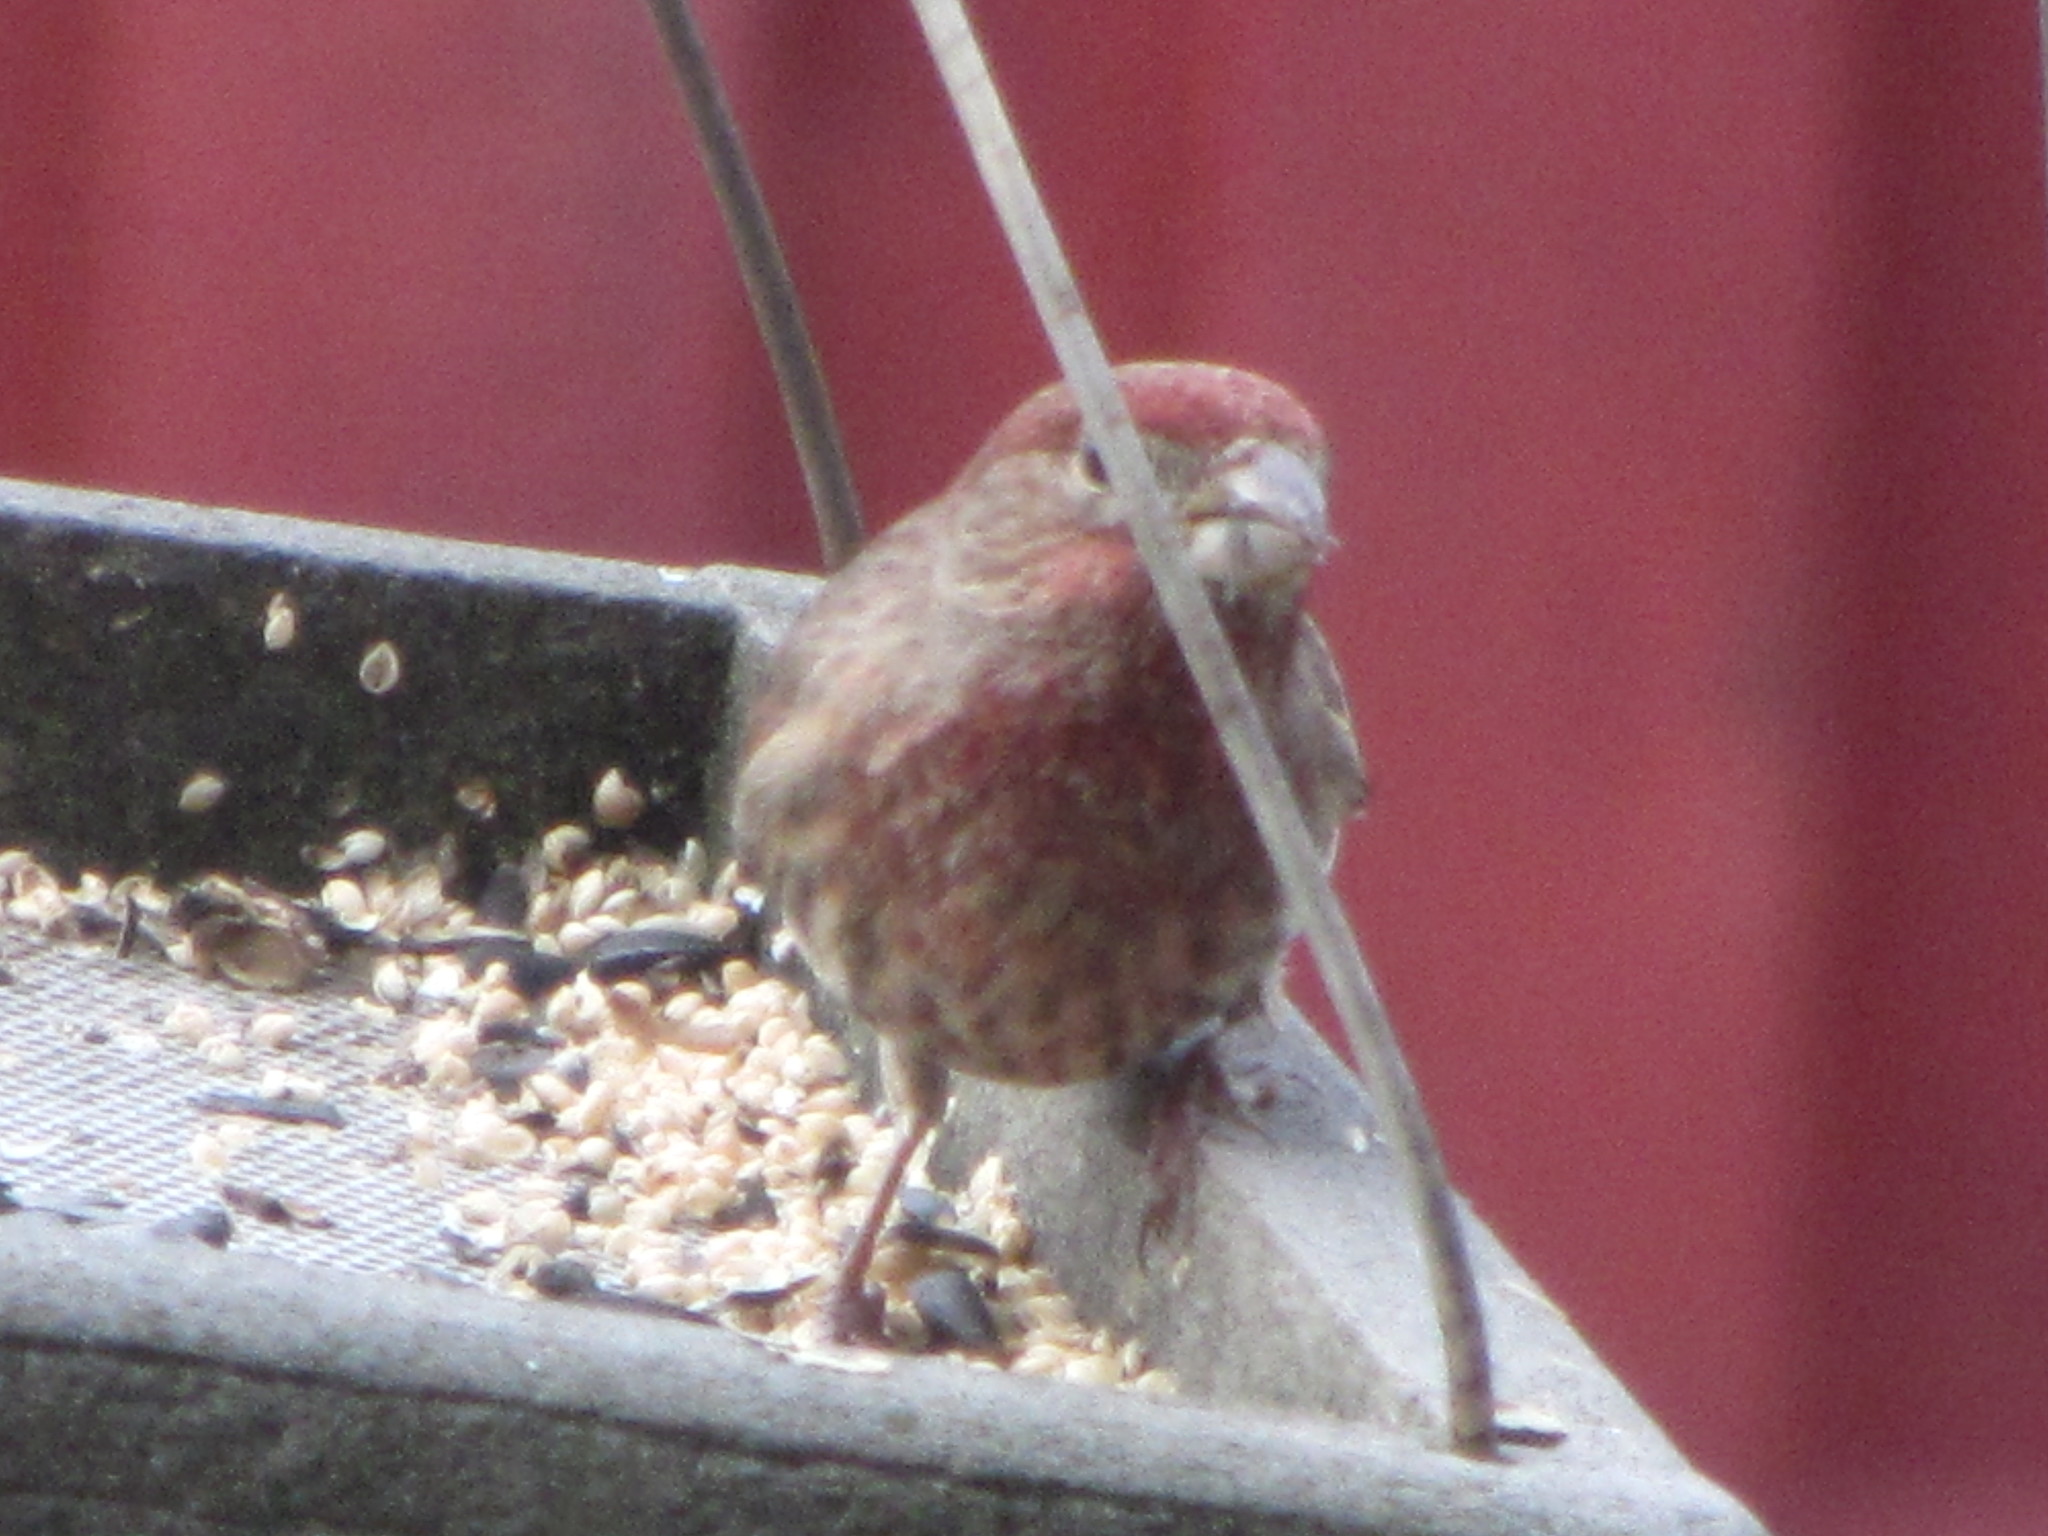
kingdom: Animalia
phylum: Chordata
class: Aves
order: Passeriformes
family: Fringillidae
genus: Haemorhous
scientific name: Haemorhous mexicanus
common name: House finch
